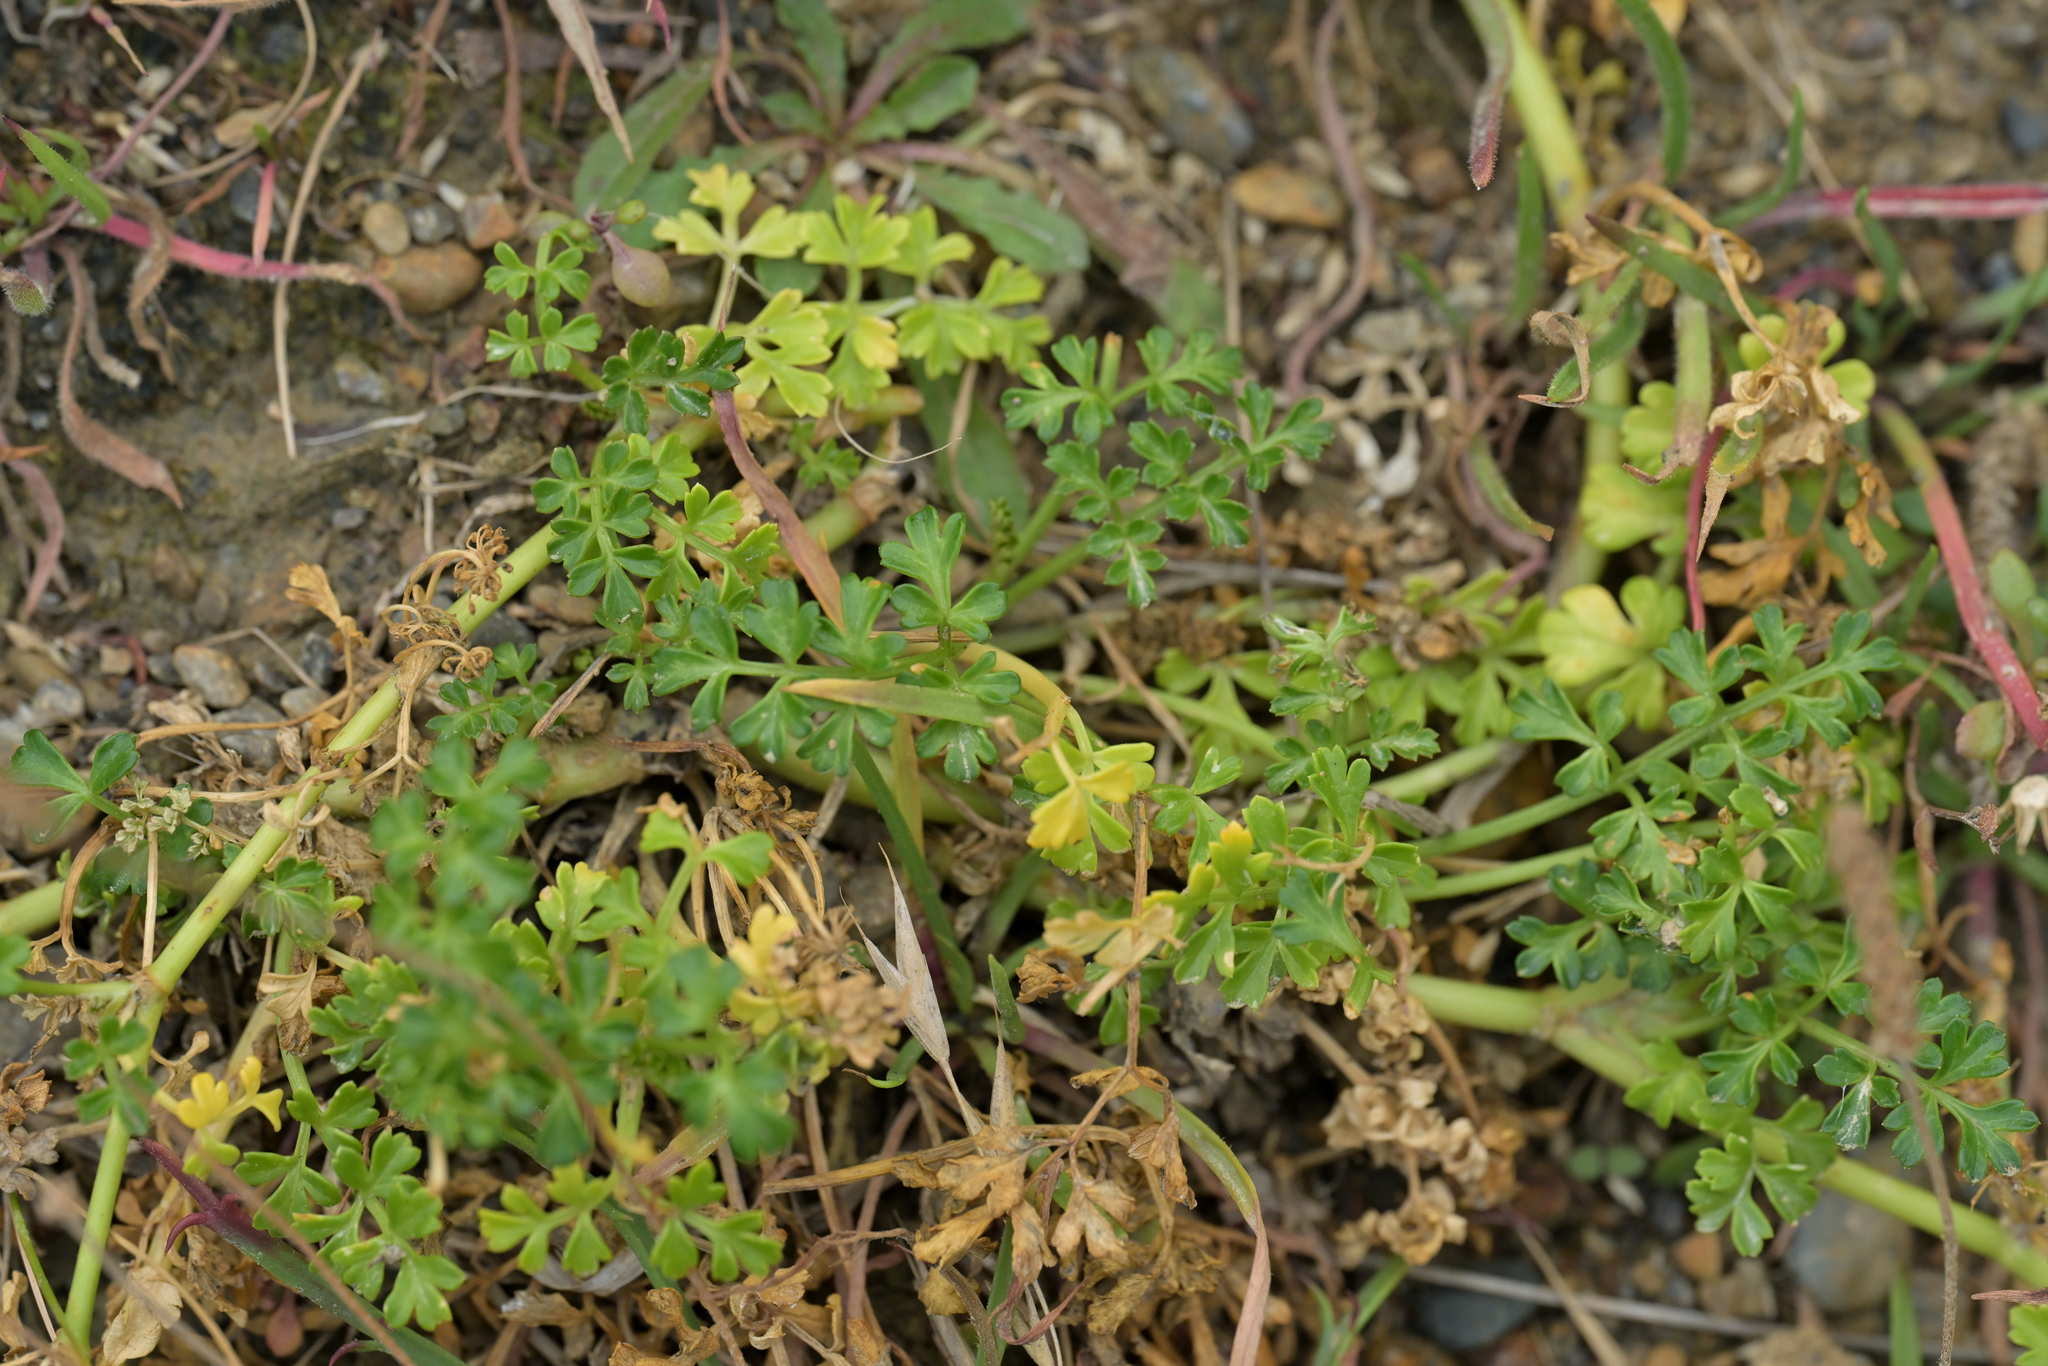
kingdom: Plantae
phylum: Tracheophyta
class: Magnoliopsida
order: Apiales
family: Apiaceae
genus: Apium
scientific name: Apium prostratum
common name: Prostrate marshwort
